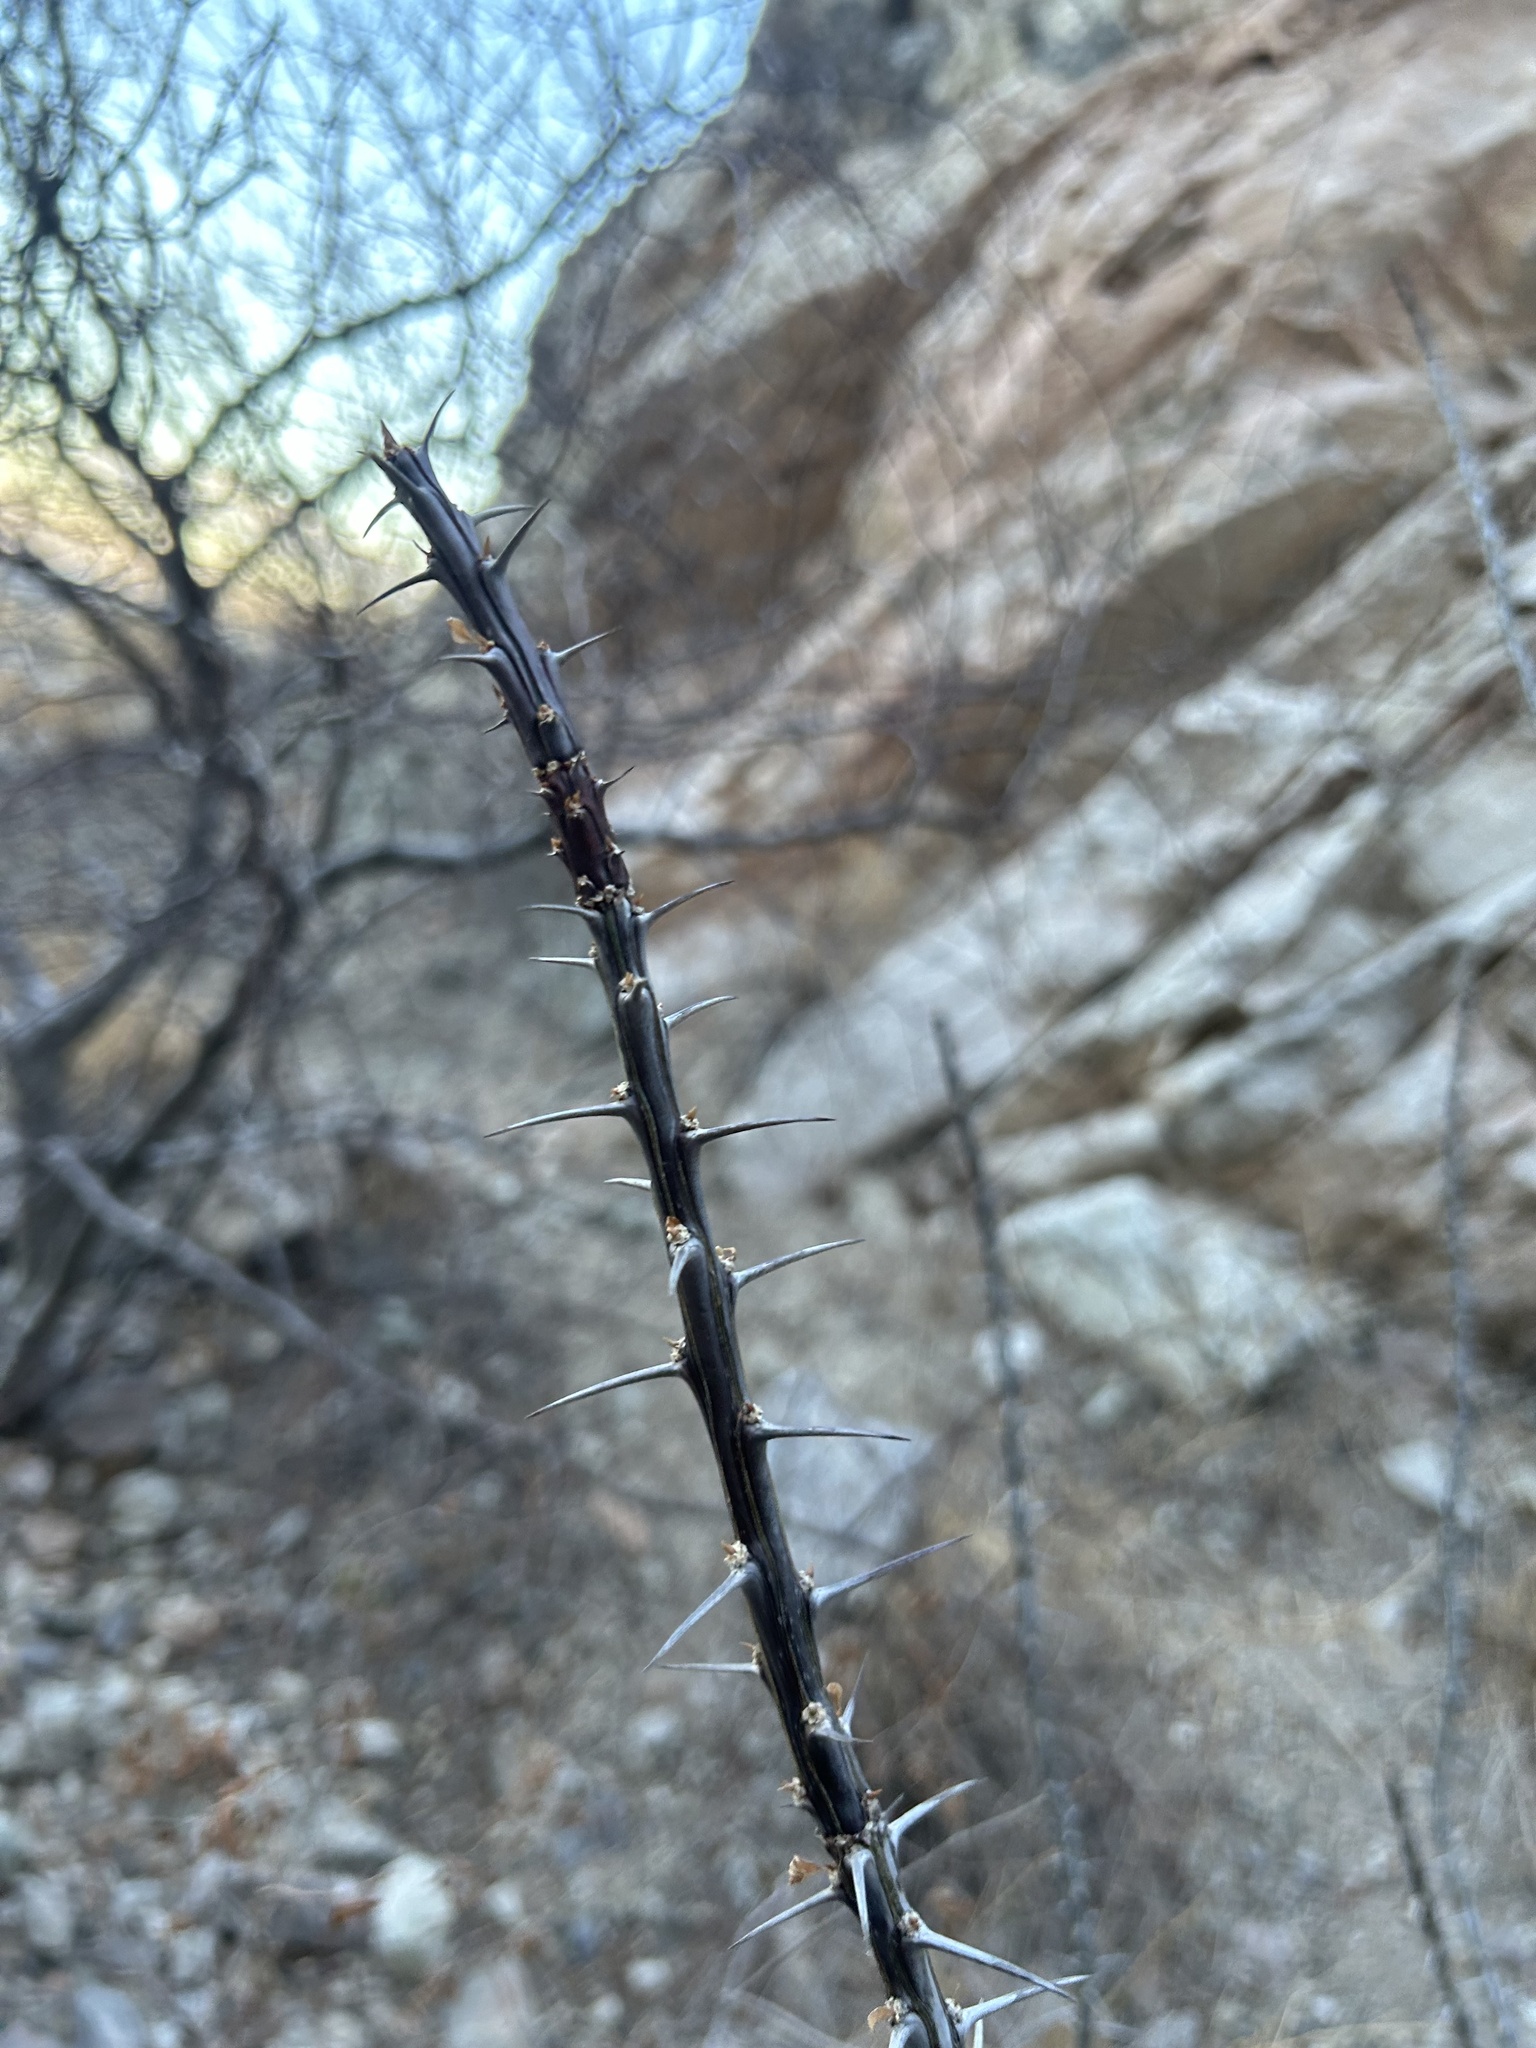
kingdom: Plantae
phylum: Tracheophyta
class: Magnoliopsida
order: Ericales
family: Fouquieriaceae
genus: Fouquieria
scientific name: Fouquieria splendens
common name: Vine-cactus
